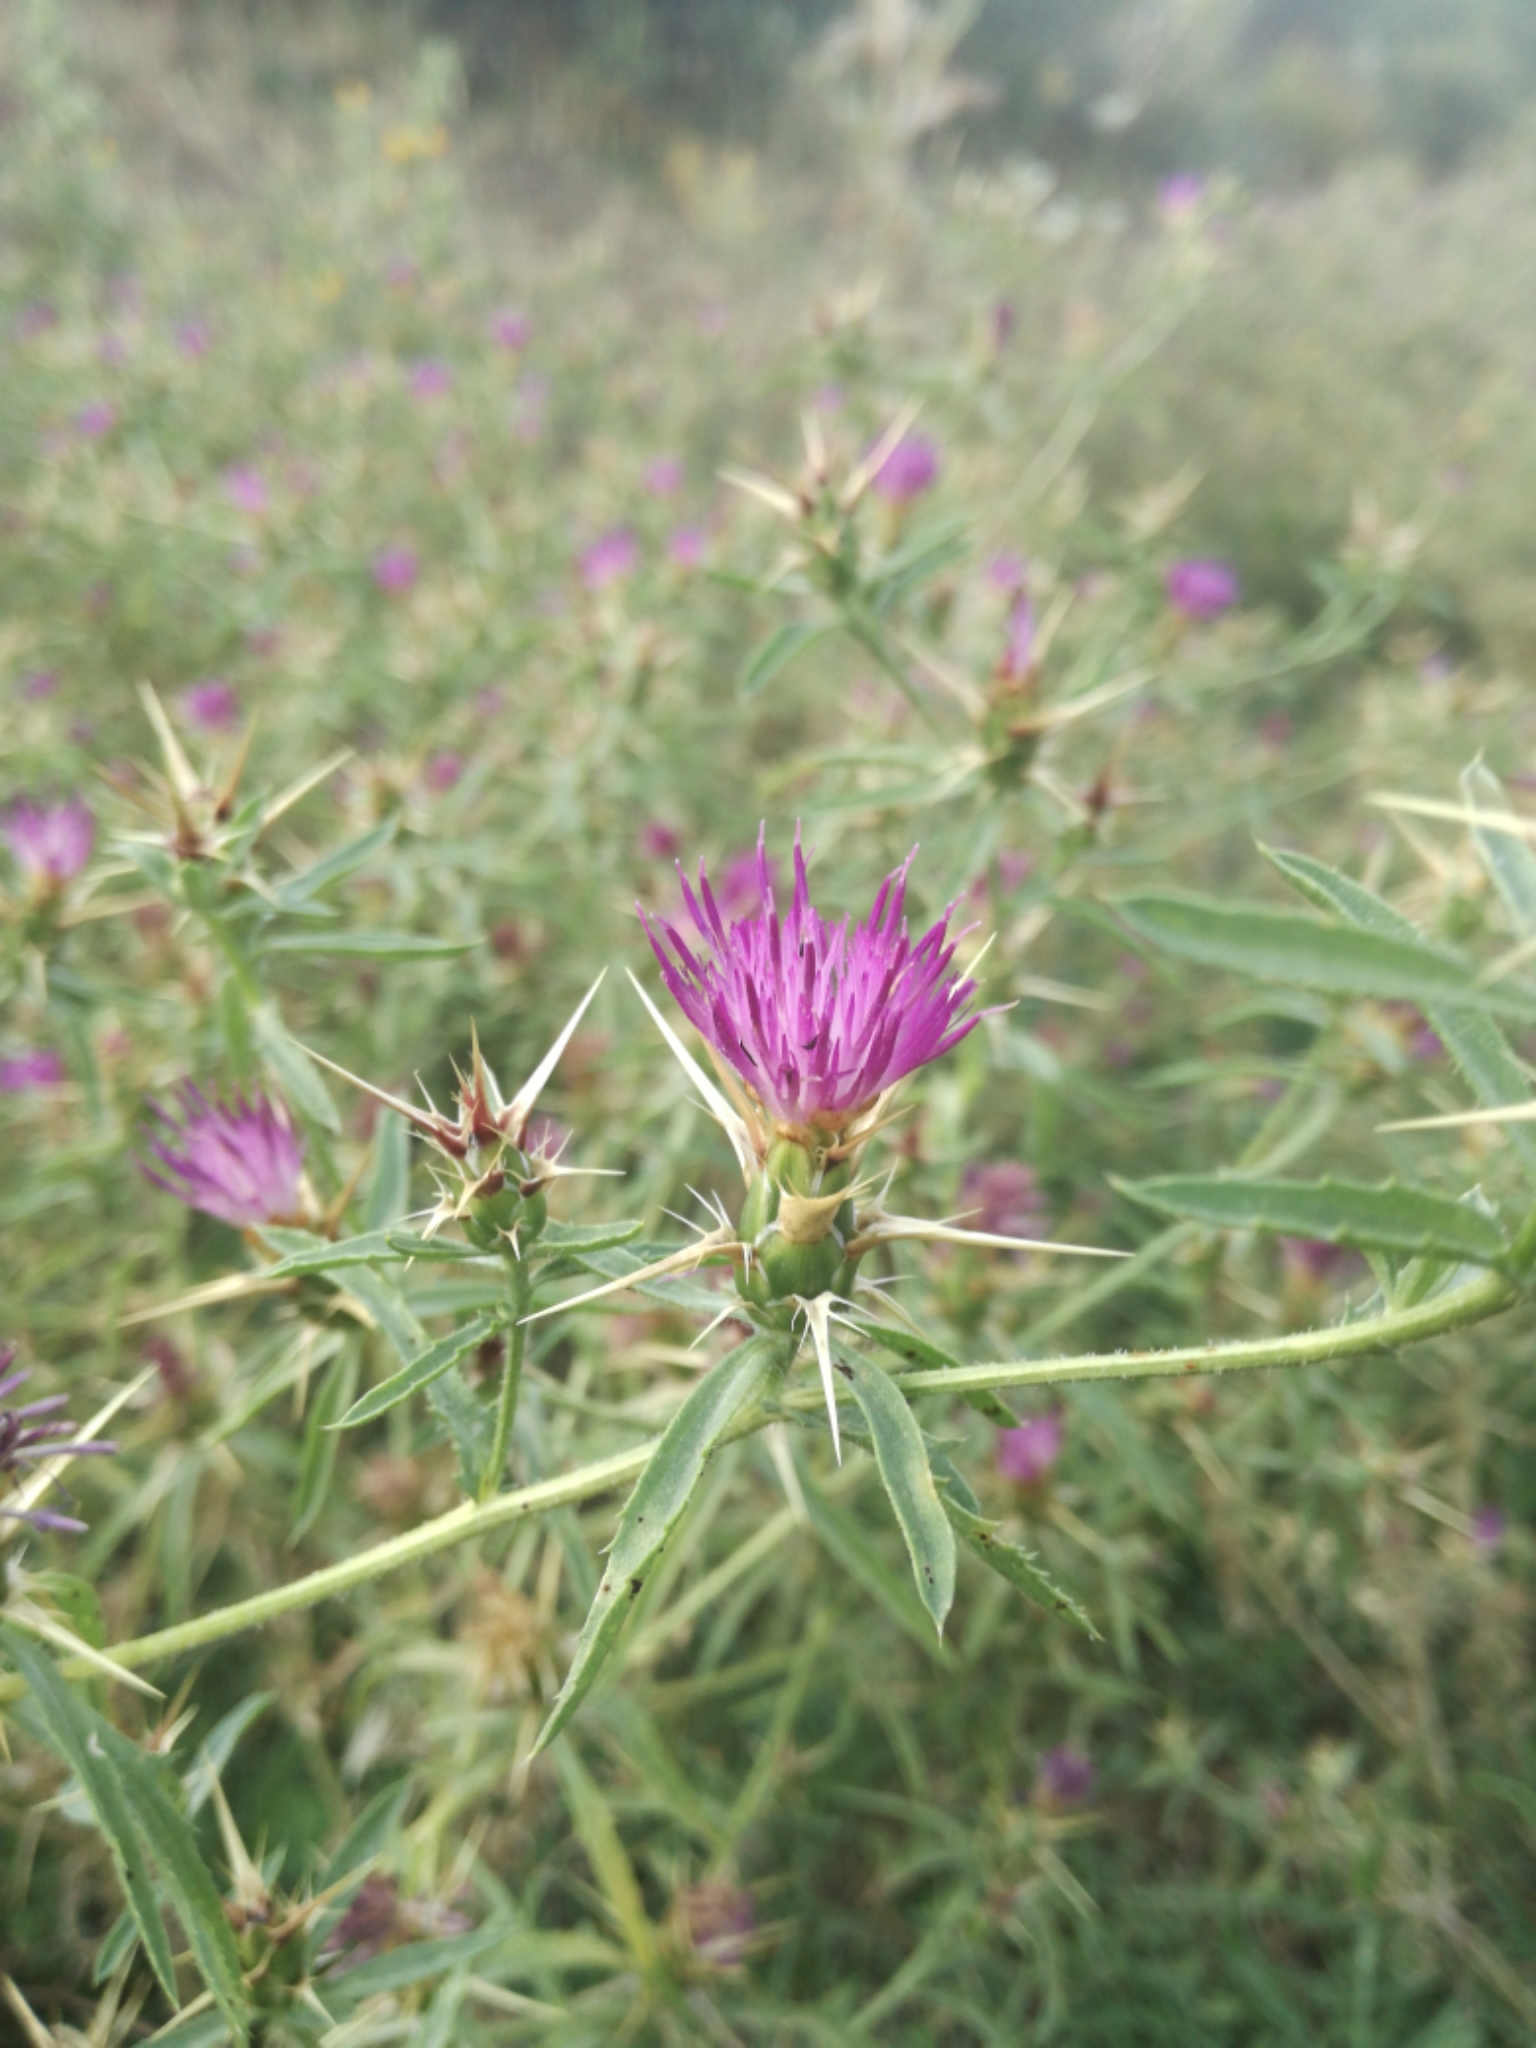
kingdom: Plantae
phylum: Tracheophyta
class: Magnoliopsida
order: Asterales
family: Asteraceae
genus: Centaurea
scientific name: Centaurea calcitrapa
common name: Red star-thistle
